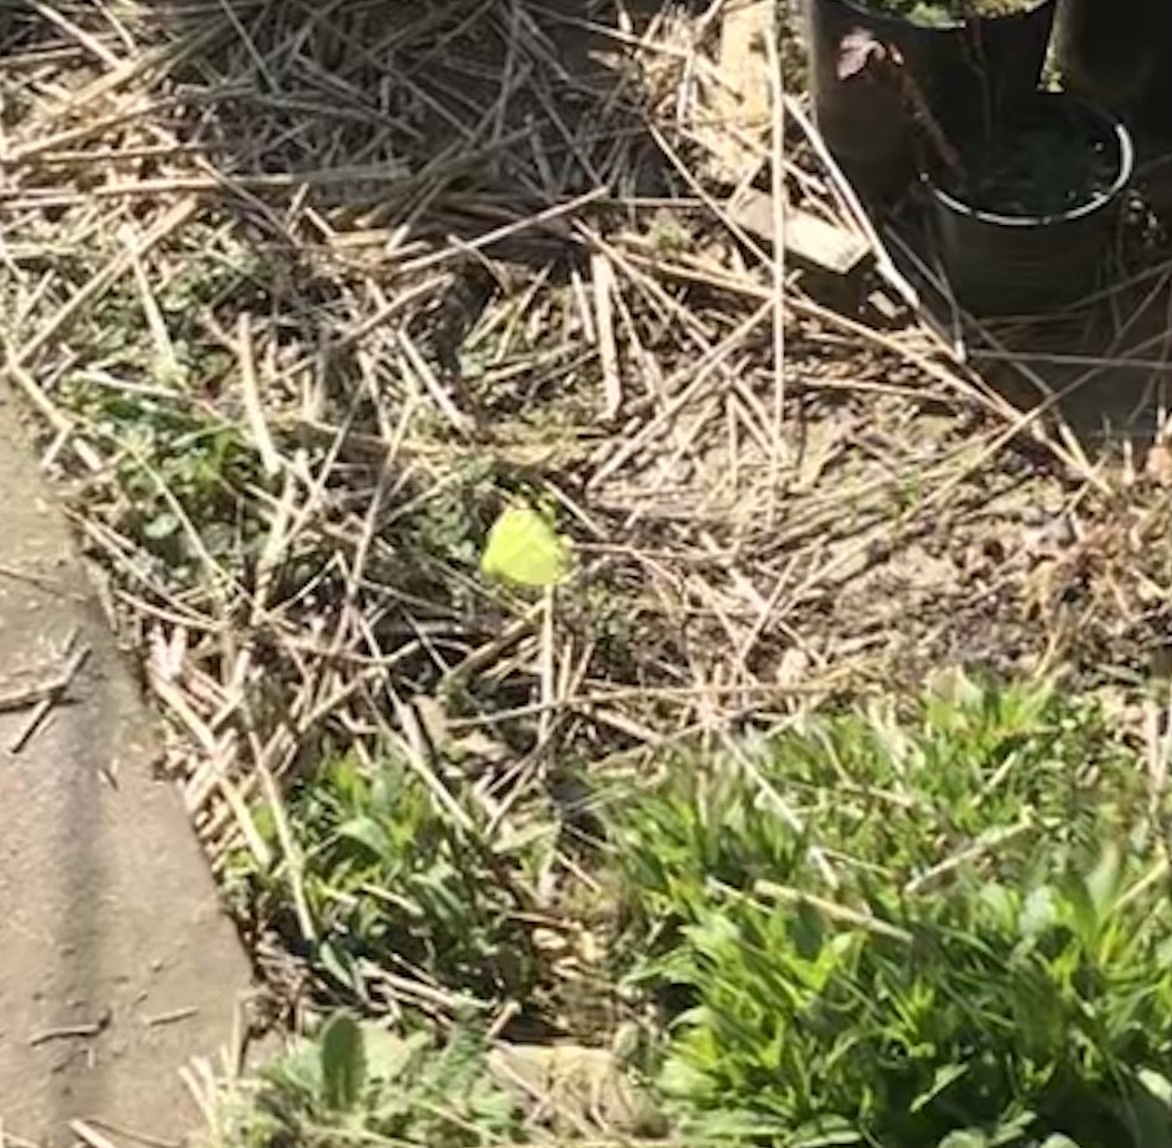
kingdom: Animalia
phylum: Arthropoda
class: Insecta
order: Lepidoptera
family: Pieridae
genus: Gonepteryx
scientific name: Gonepteryx rhamni
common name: Brimstone
